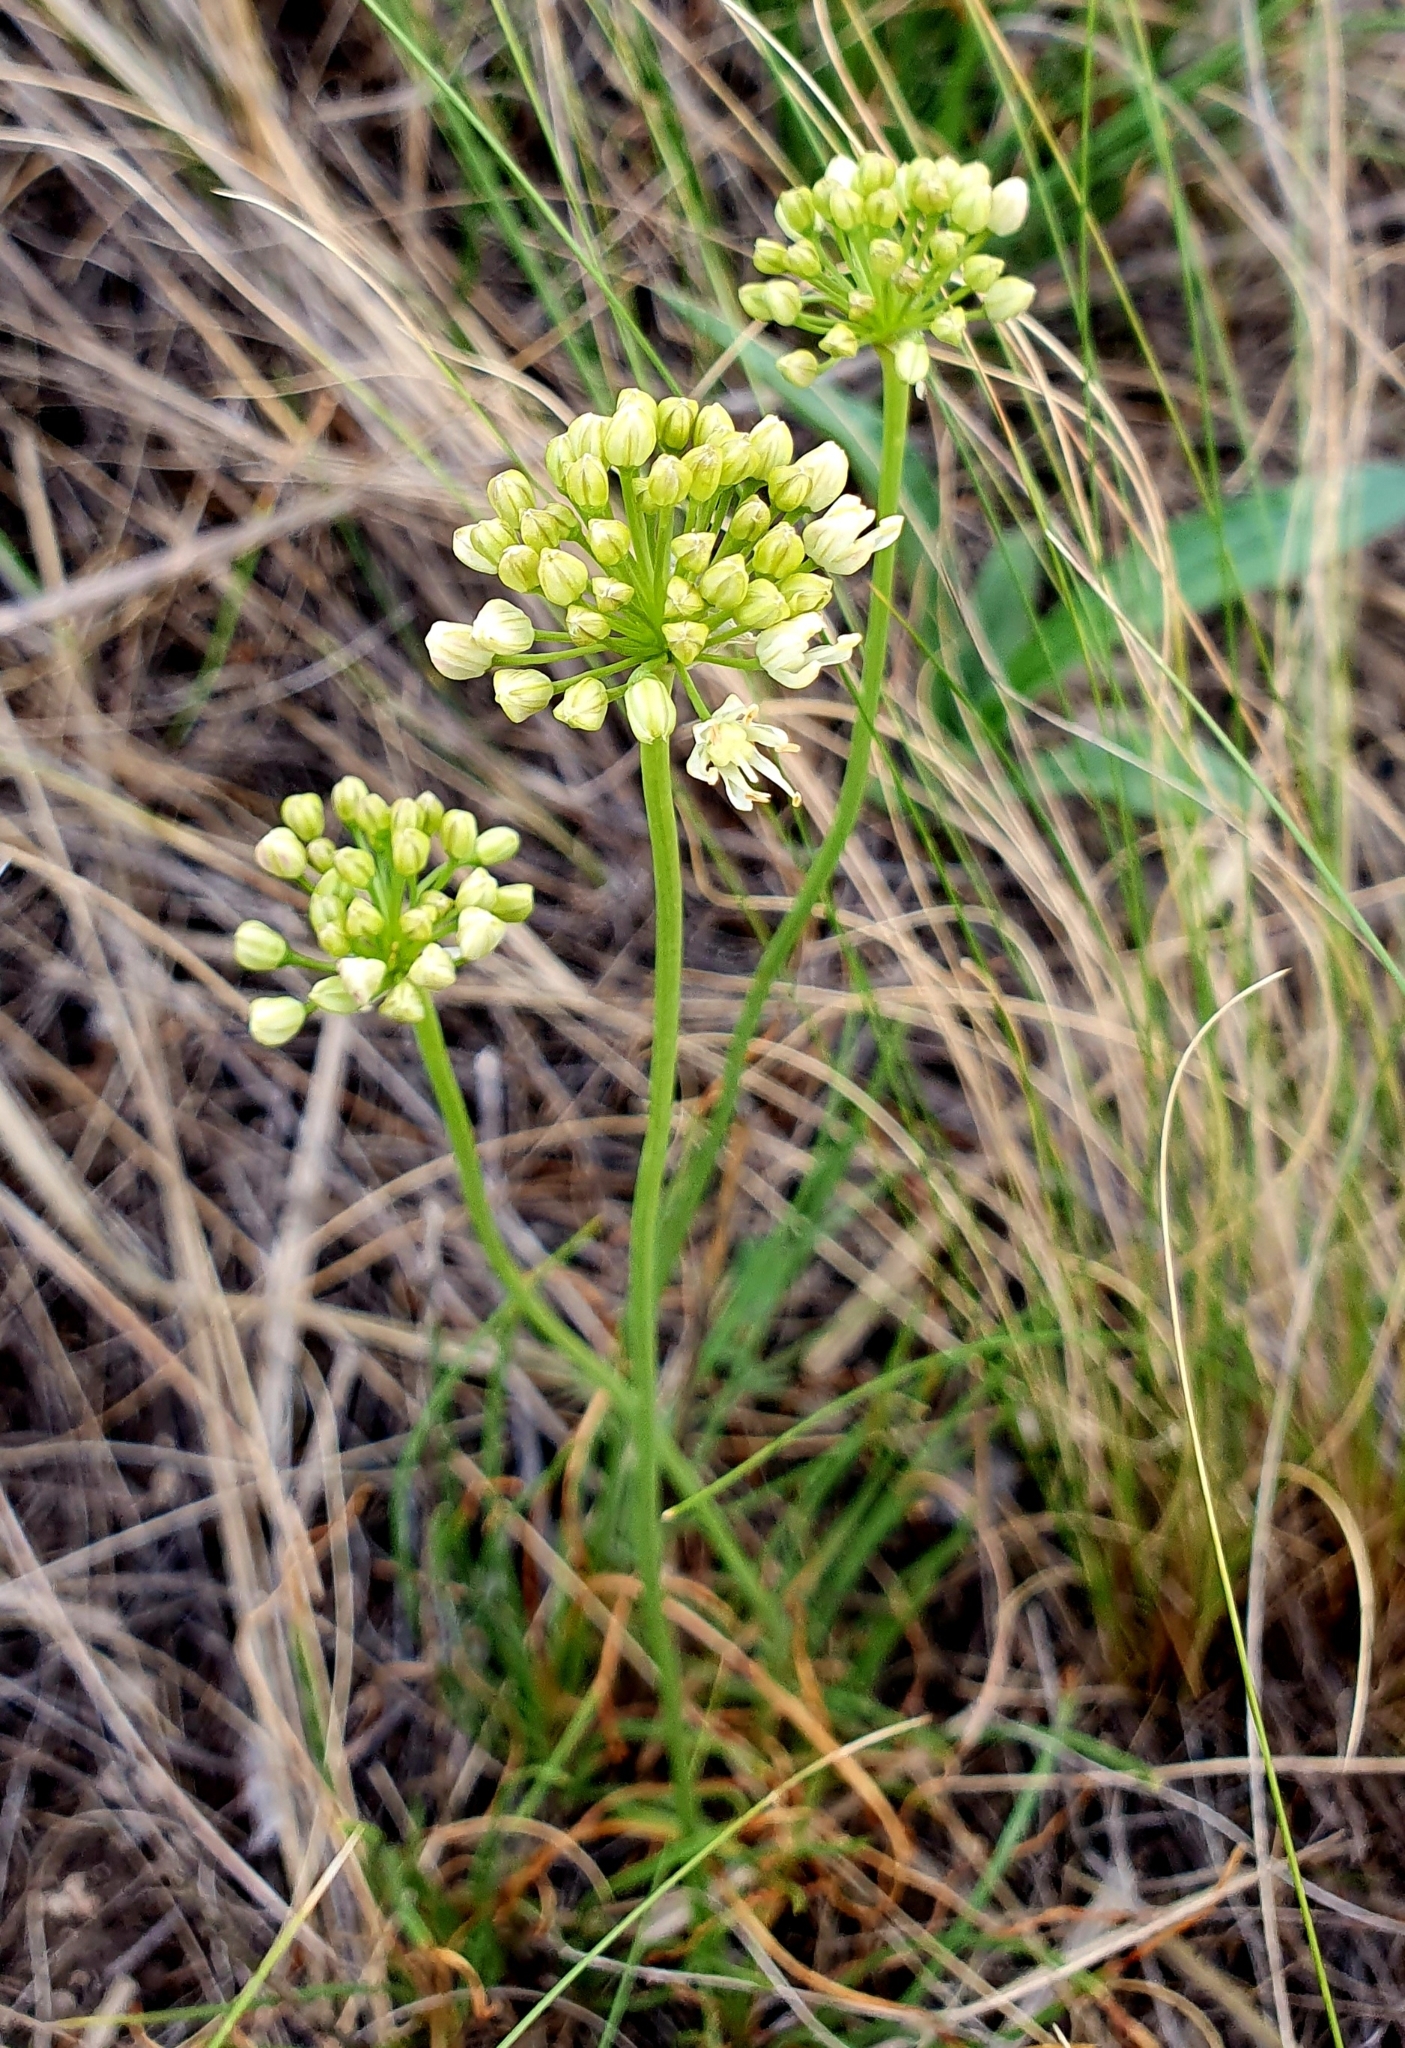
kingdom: Plantae
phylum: Tracheophyta
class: Liliopsida
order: Asparagales
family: Amaryllidaceae
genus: Allium
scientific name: Allium flavescens
